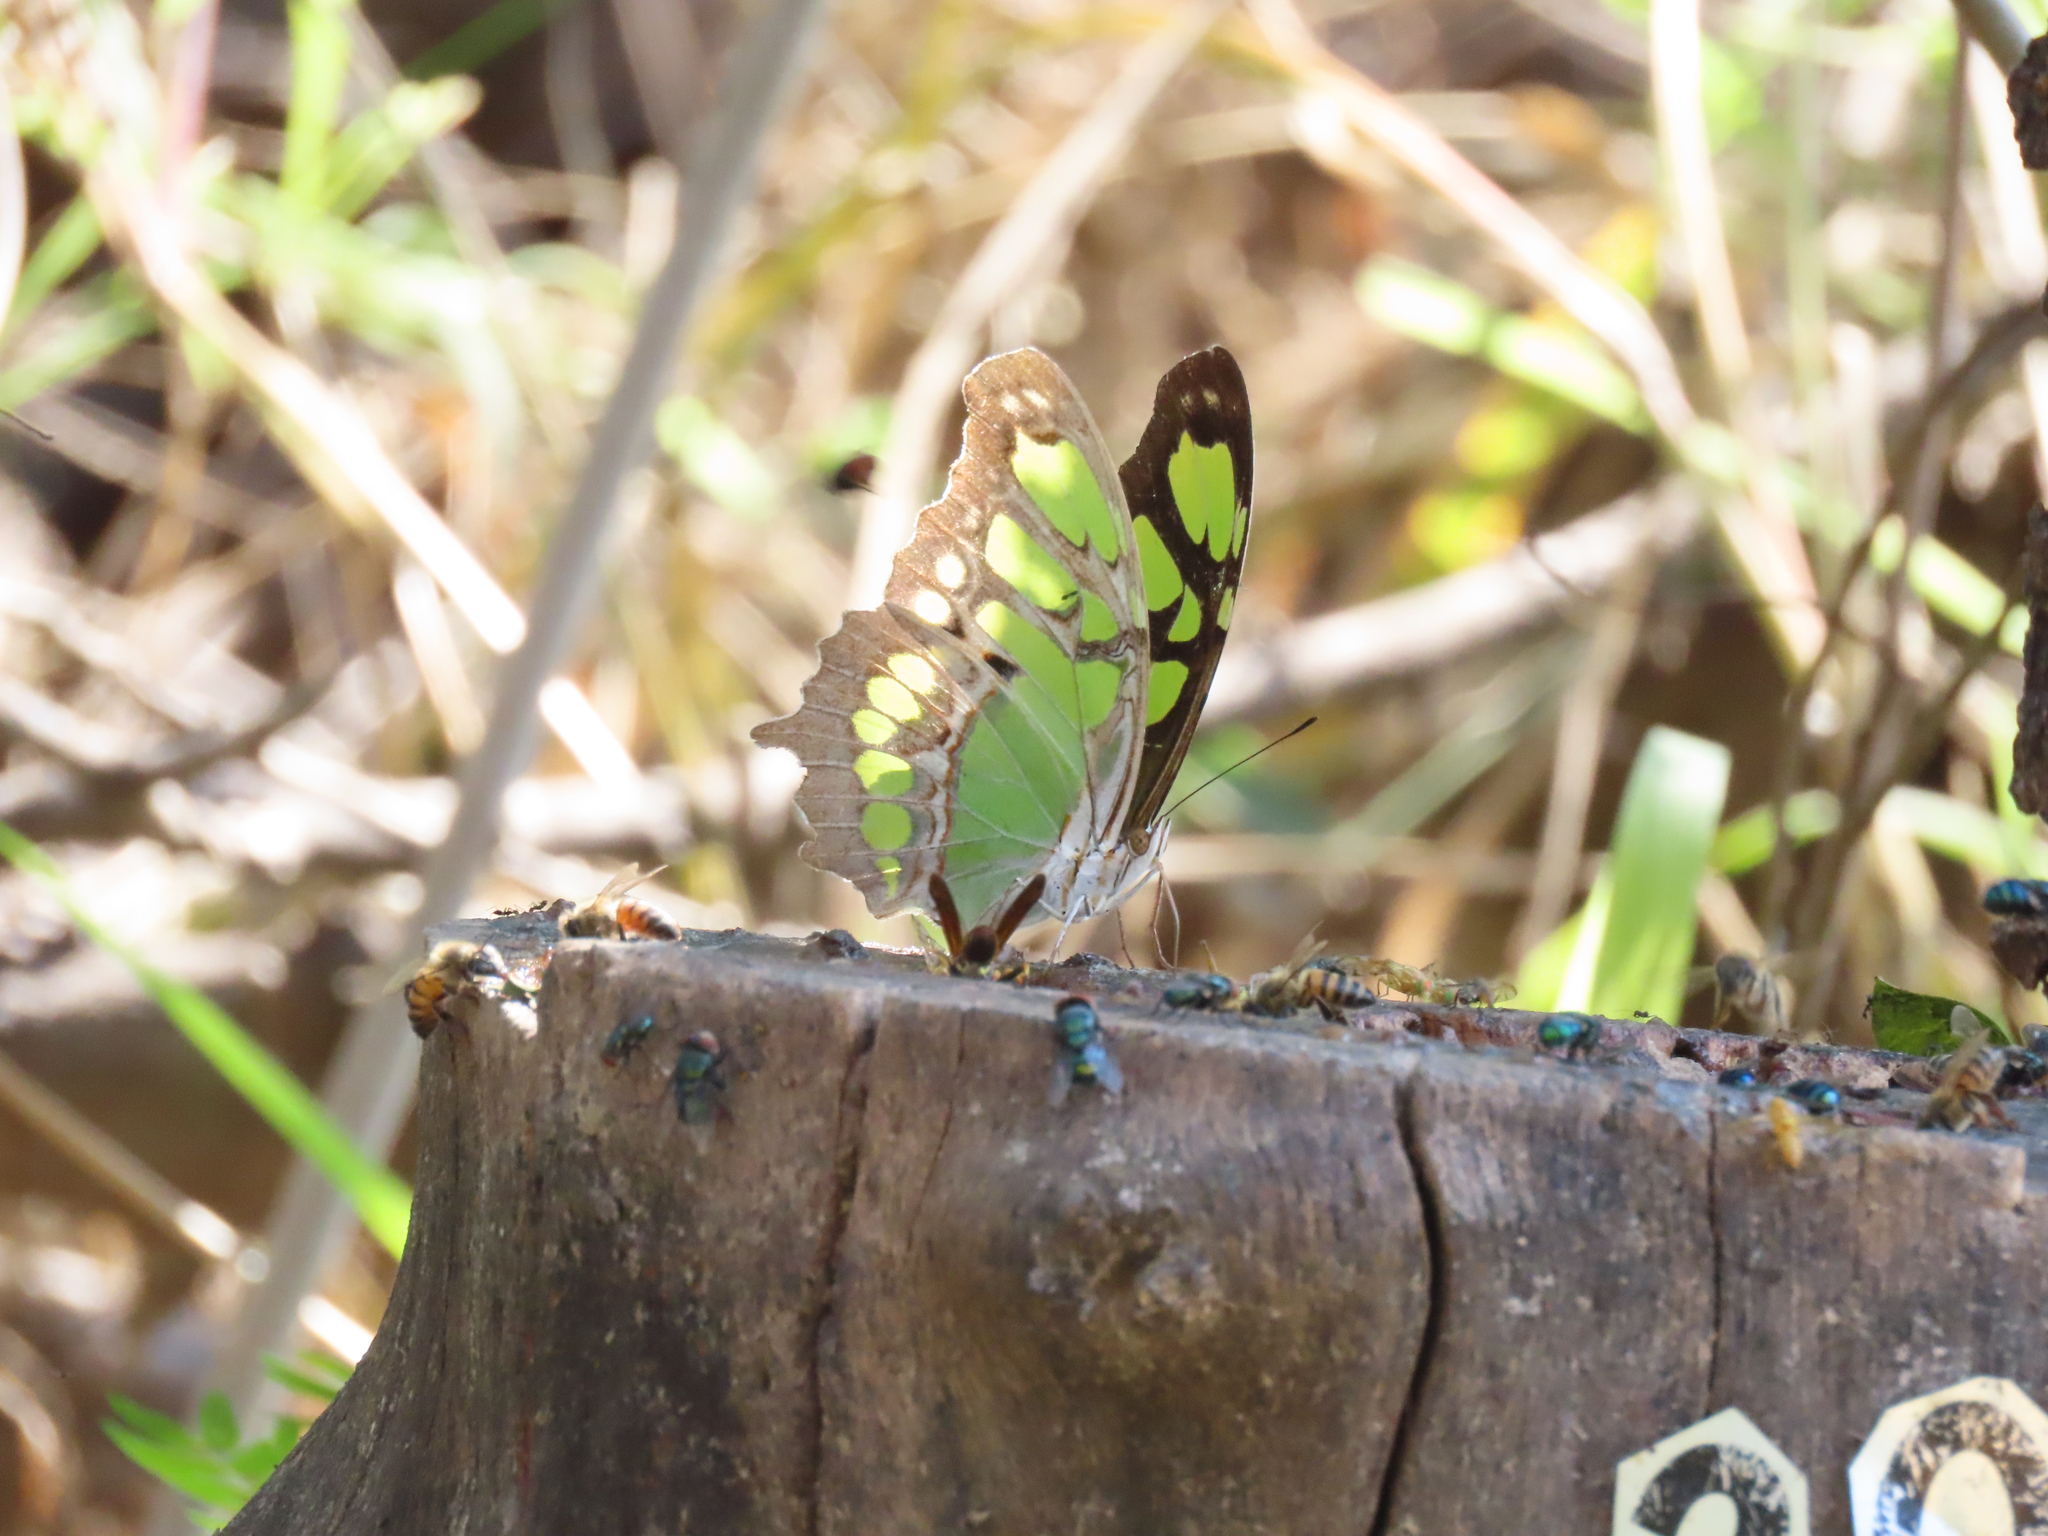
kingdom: Animalia
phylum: Arthropoda
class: Insecta
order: Lepidoptera
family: Nymphalidae
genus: Siproeta
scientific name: Siproeta stelenes
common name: Malachite
